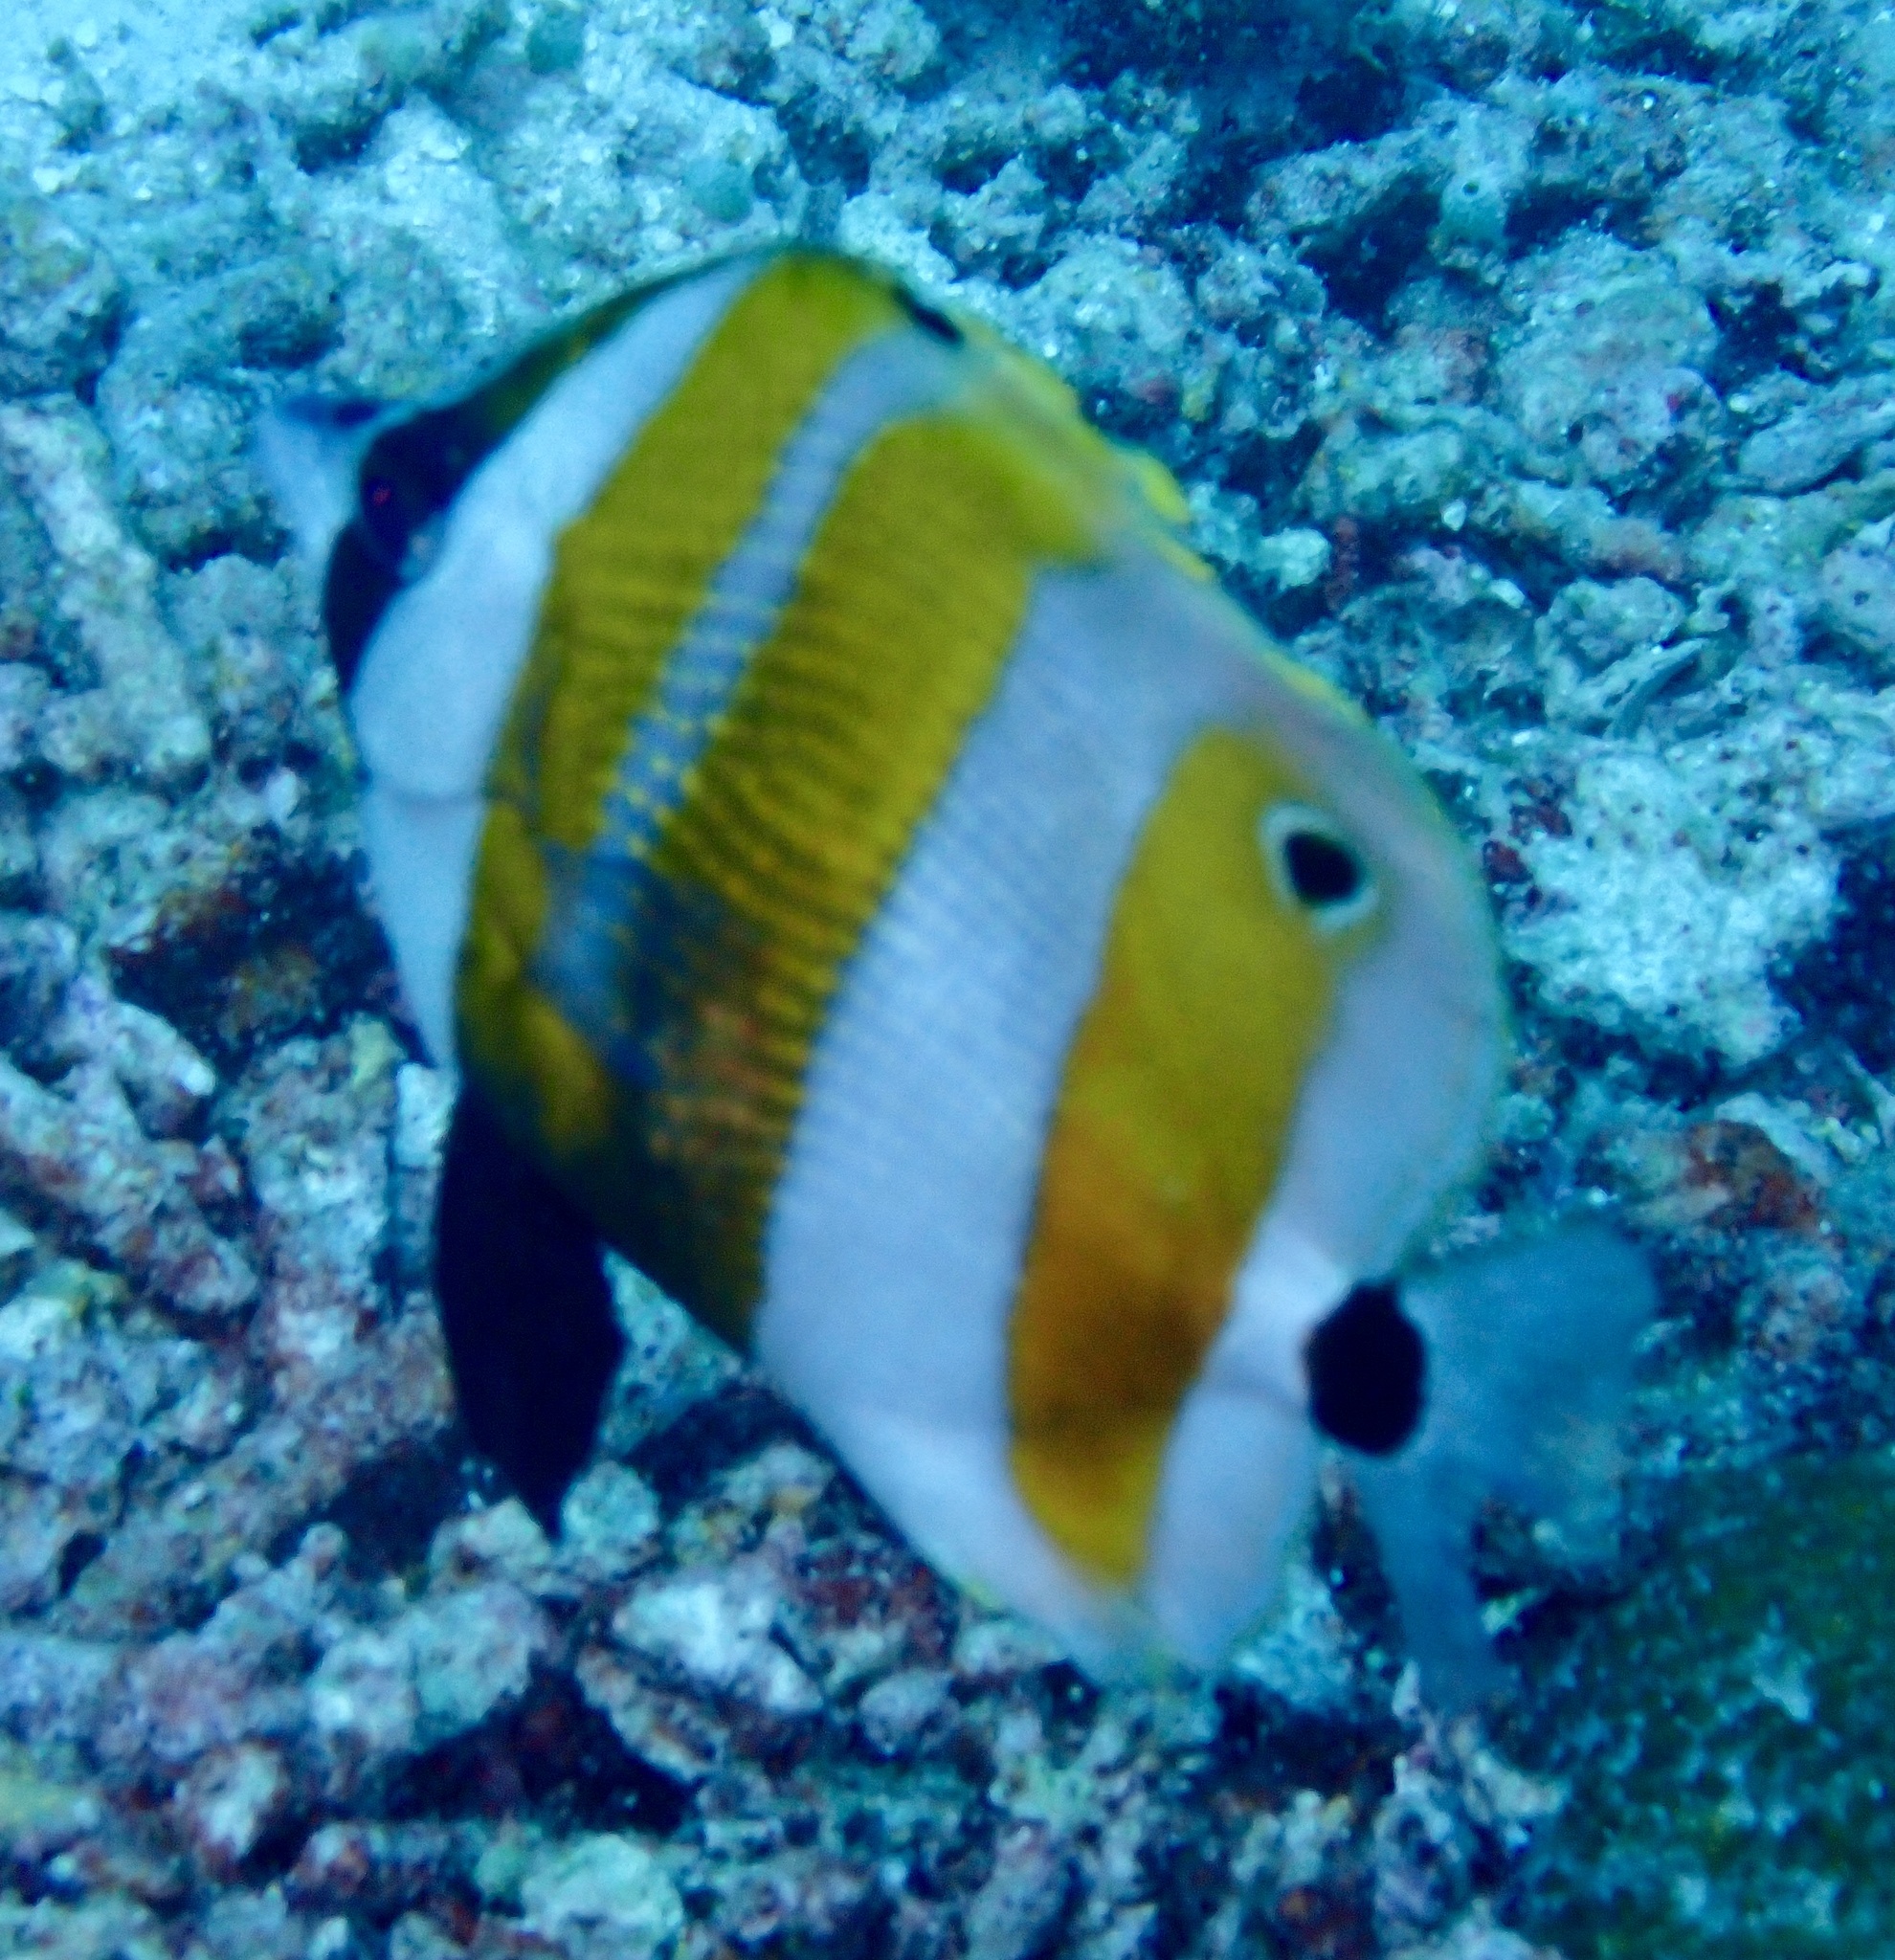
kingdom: Animalia
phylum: Chordata
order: Perciformes
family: Chaetodontidae
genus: Coradion
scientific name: Coradion chrysozonus
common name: Orange-banded coralfish
